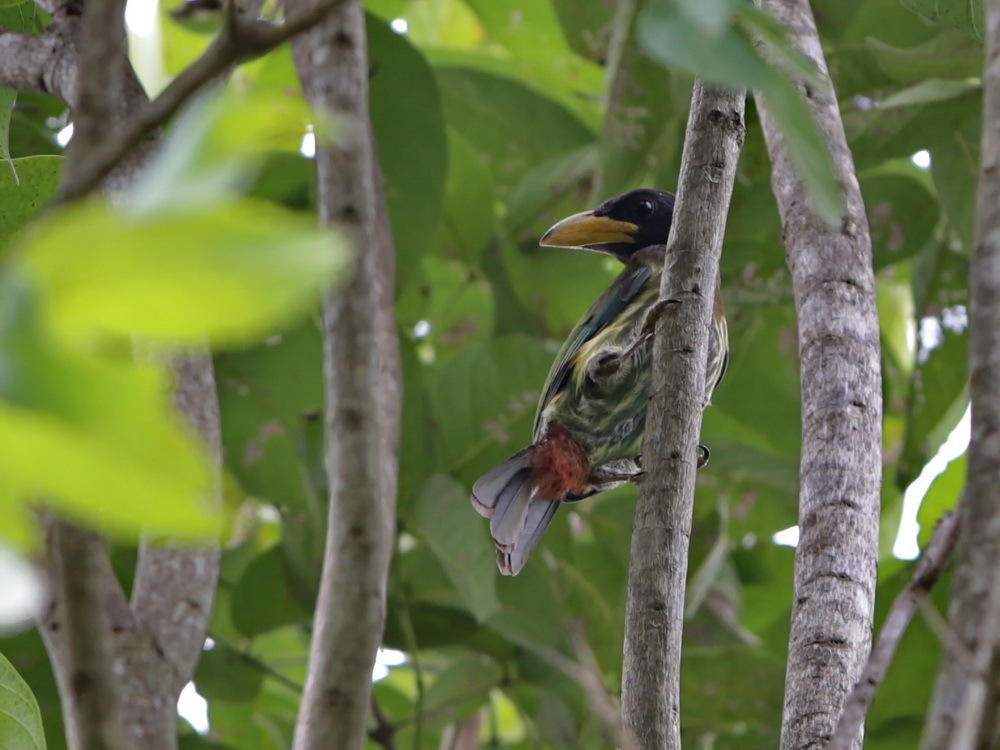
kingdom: Animalia
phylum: Chordata
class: Aves
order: Piciformes
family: Megalaimidae
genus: Psilopogon
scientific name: Psilopogon virens
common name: Great barbet
